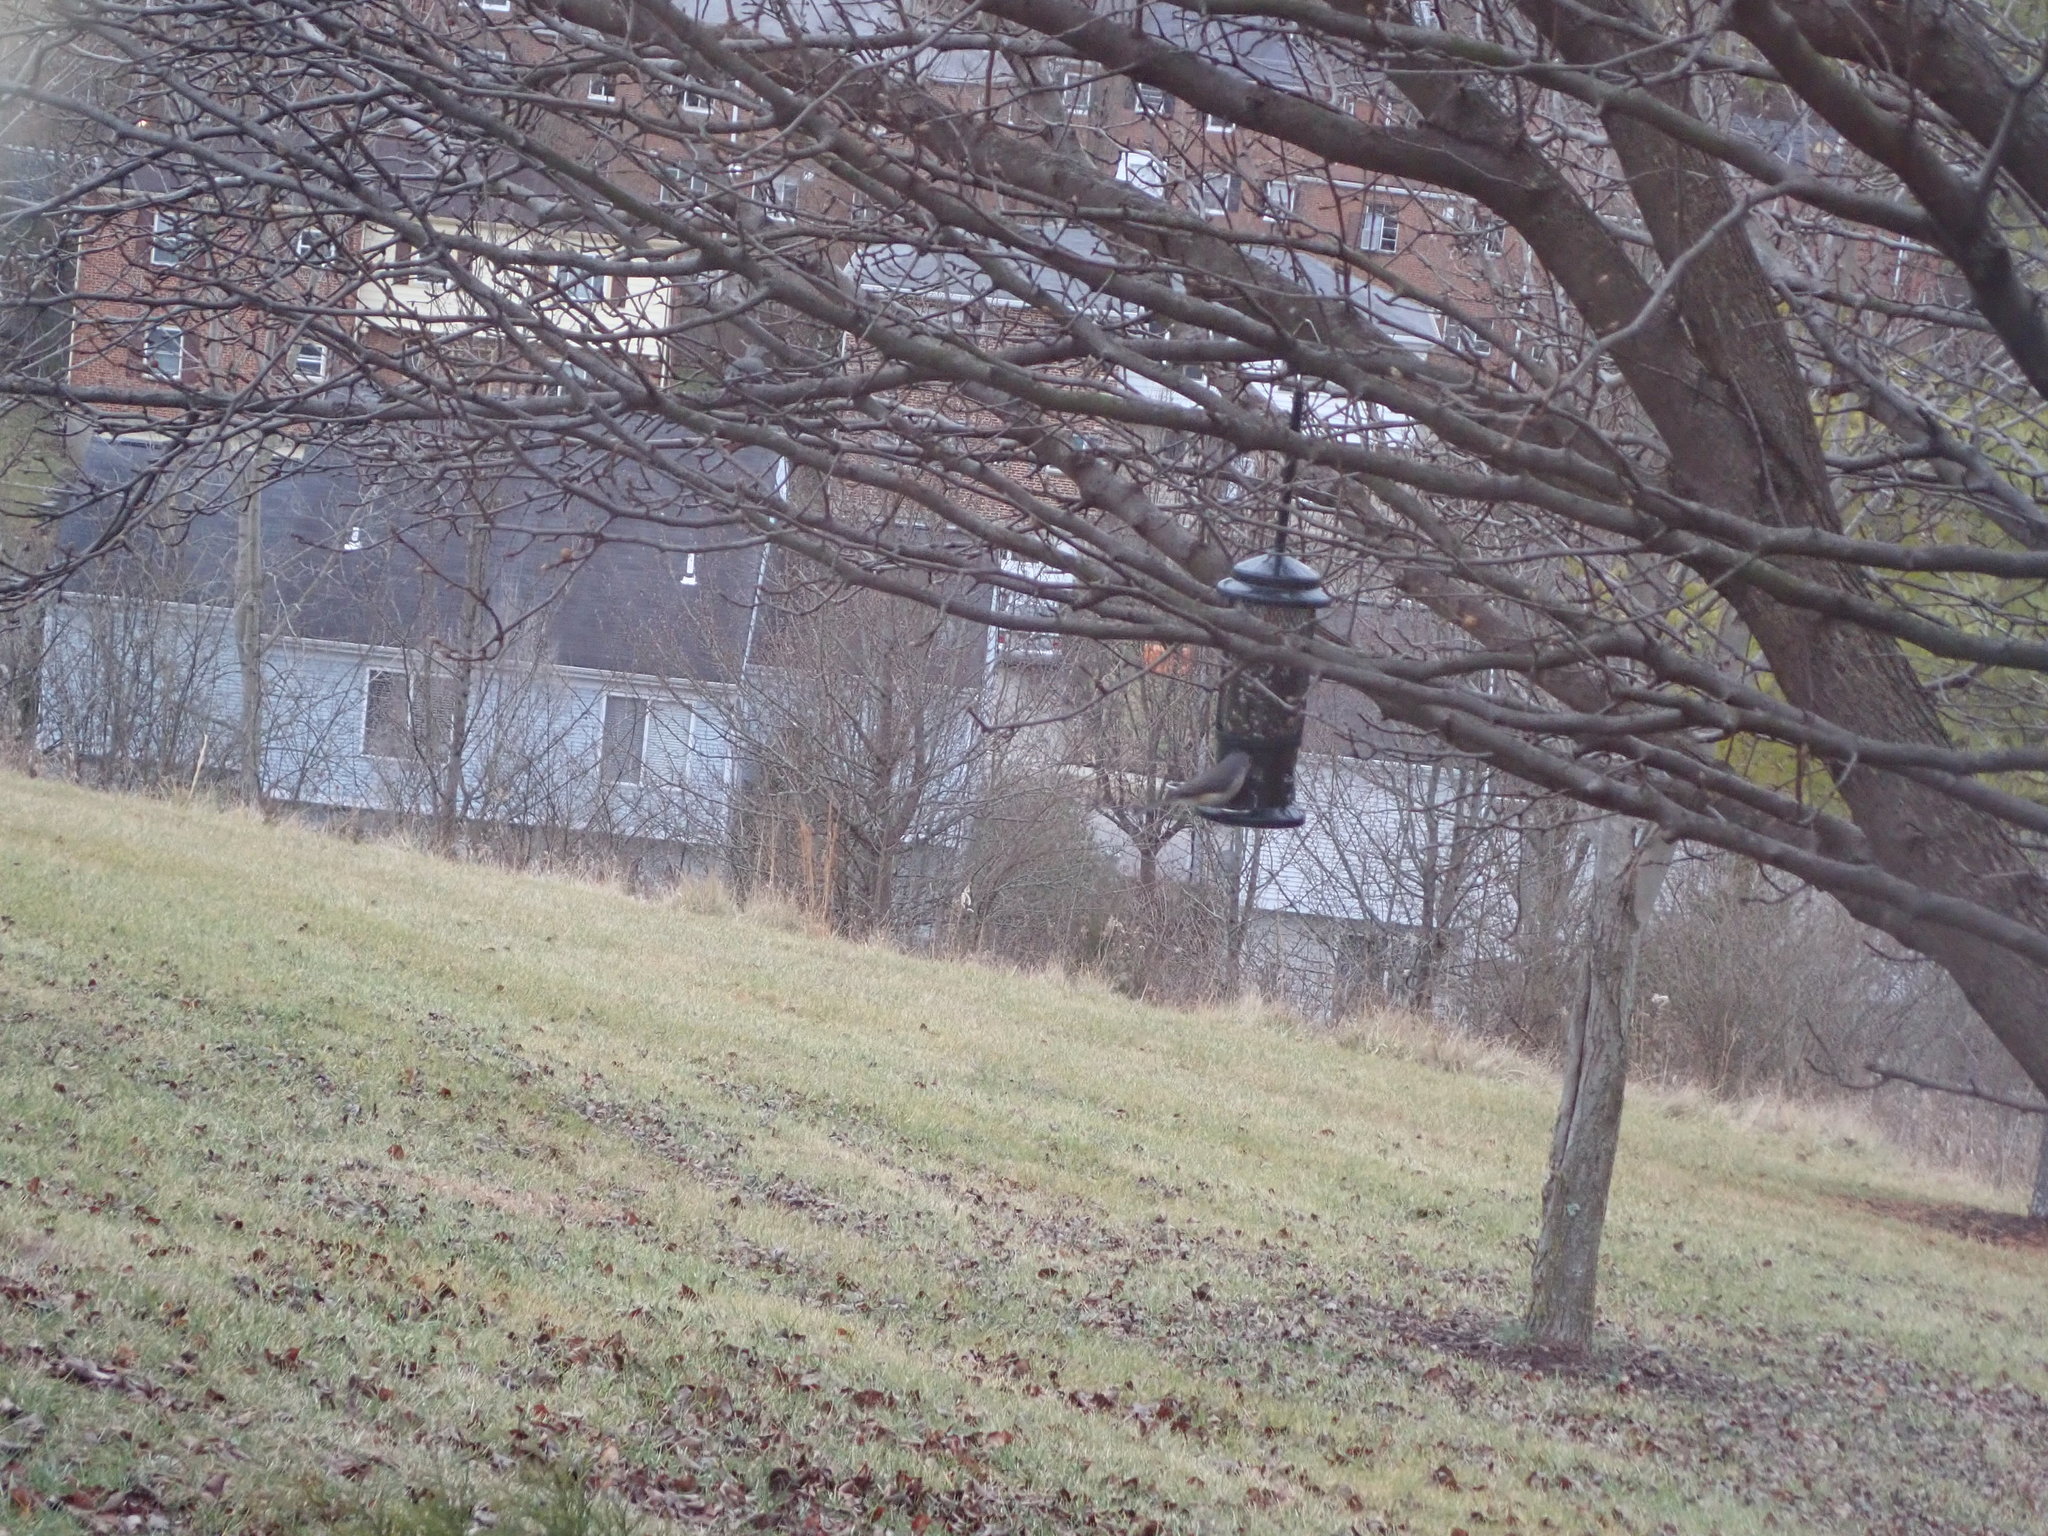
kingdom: Animalia
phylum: Chordata
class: Aves
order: Passeriformes
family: Paridae
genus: Baeolophus
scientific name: Baeolophus bicolor
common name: Tufted titmouse
